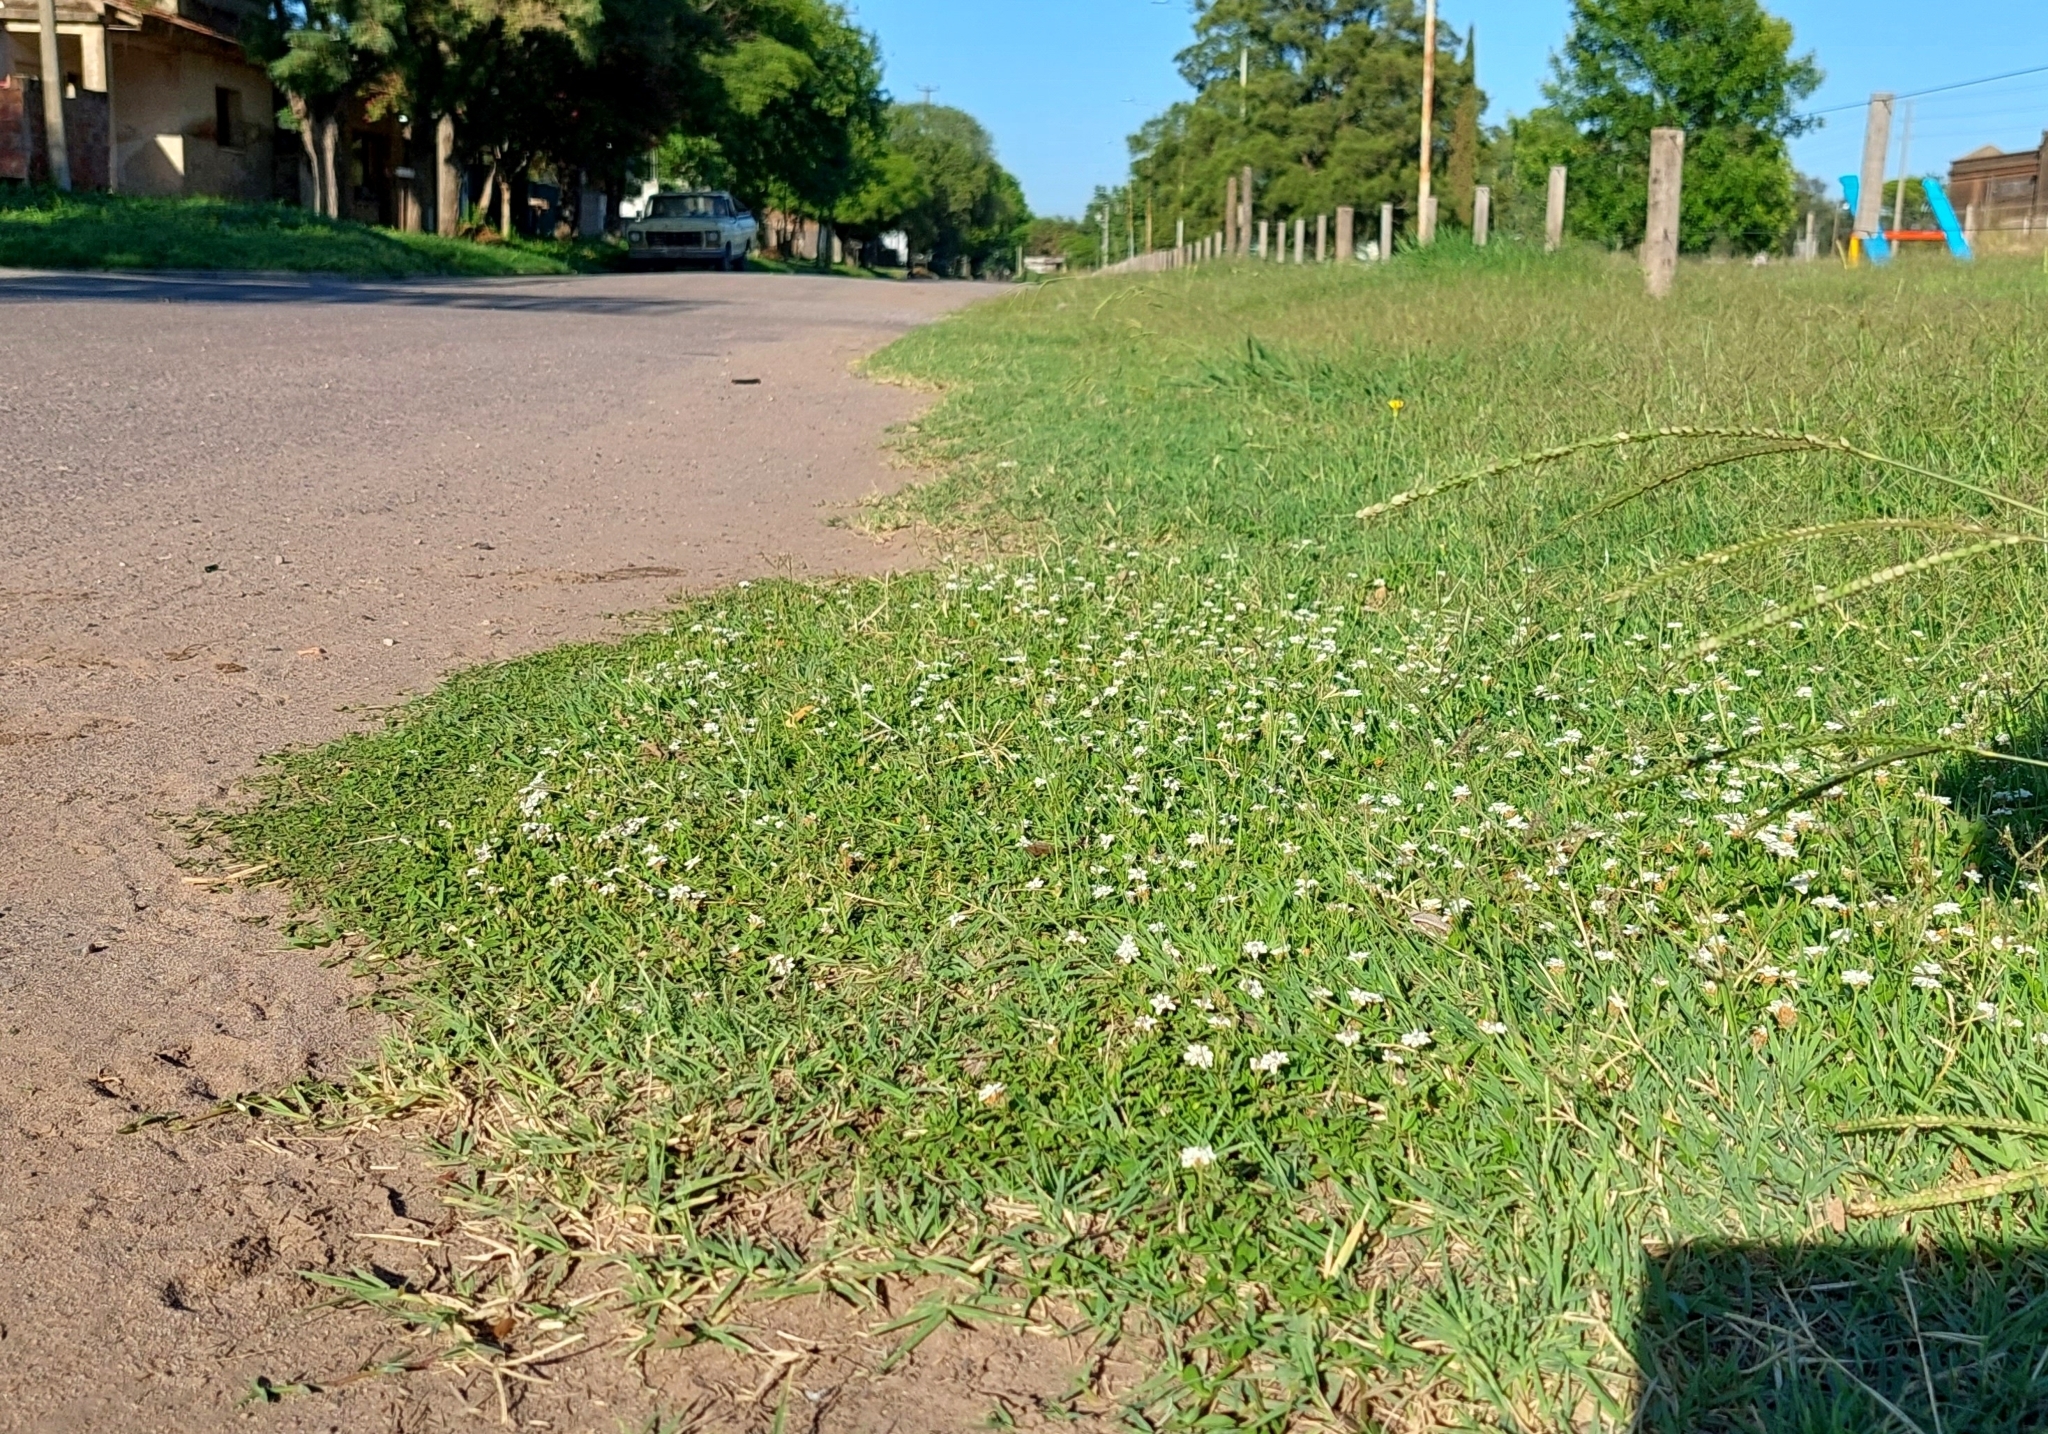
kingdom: Plantae
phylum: Tracheophyta
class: Magnoliopsida
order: Lamiales
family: Verbenaceae
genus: Phyla
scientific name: Phyla nodiflora
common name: Frogfruit
